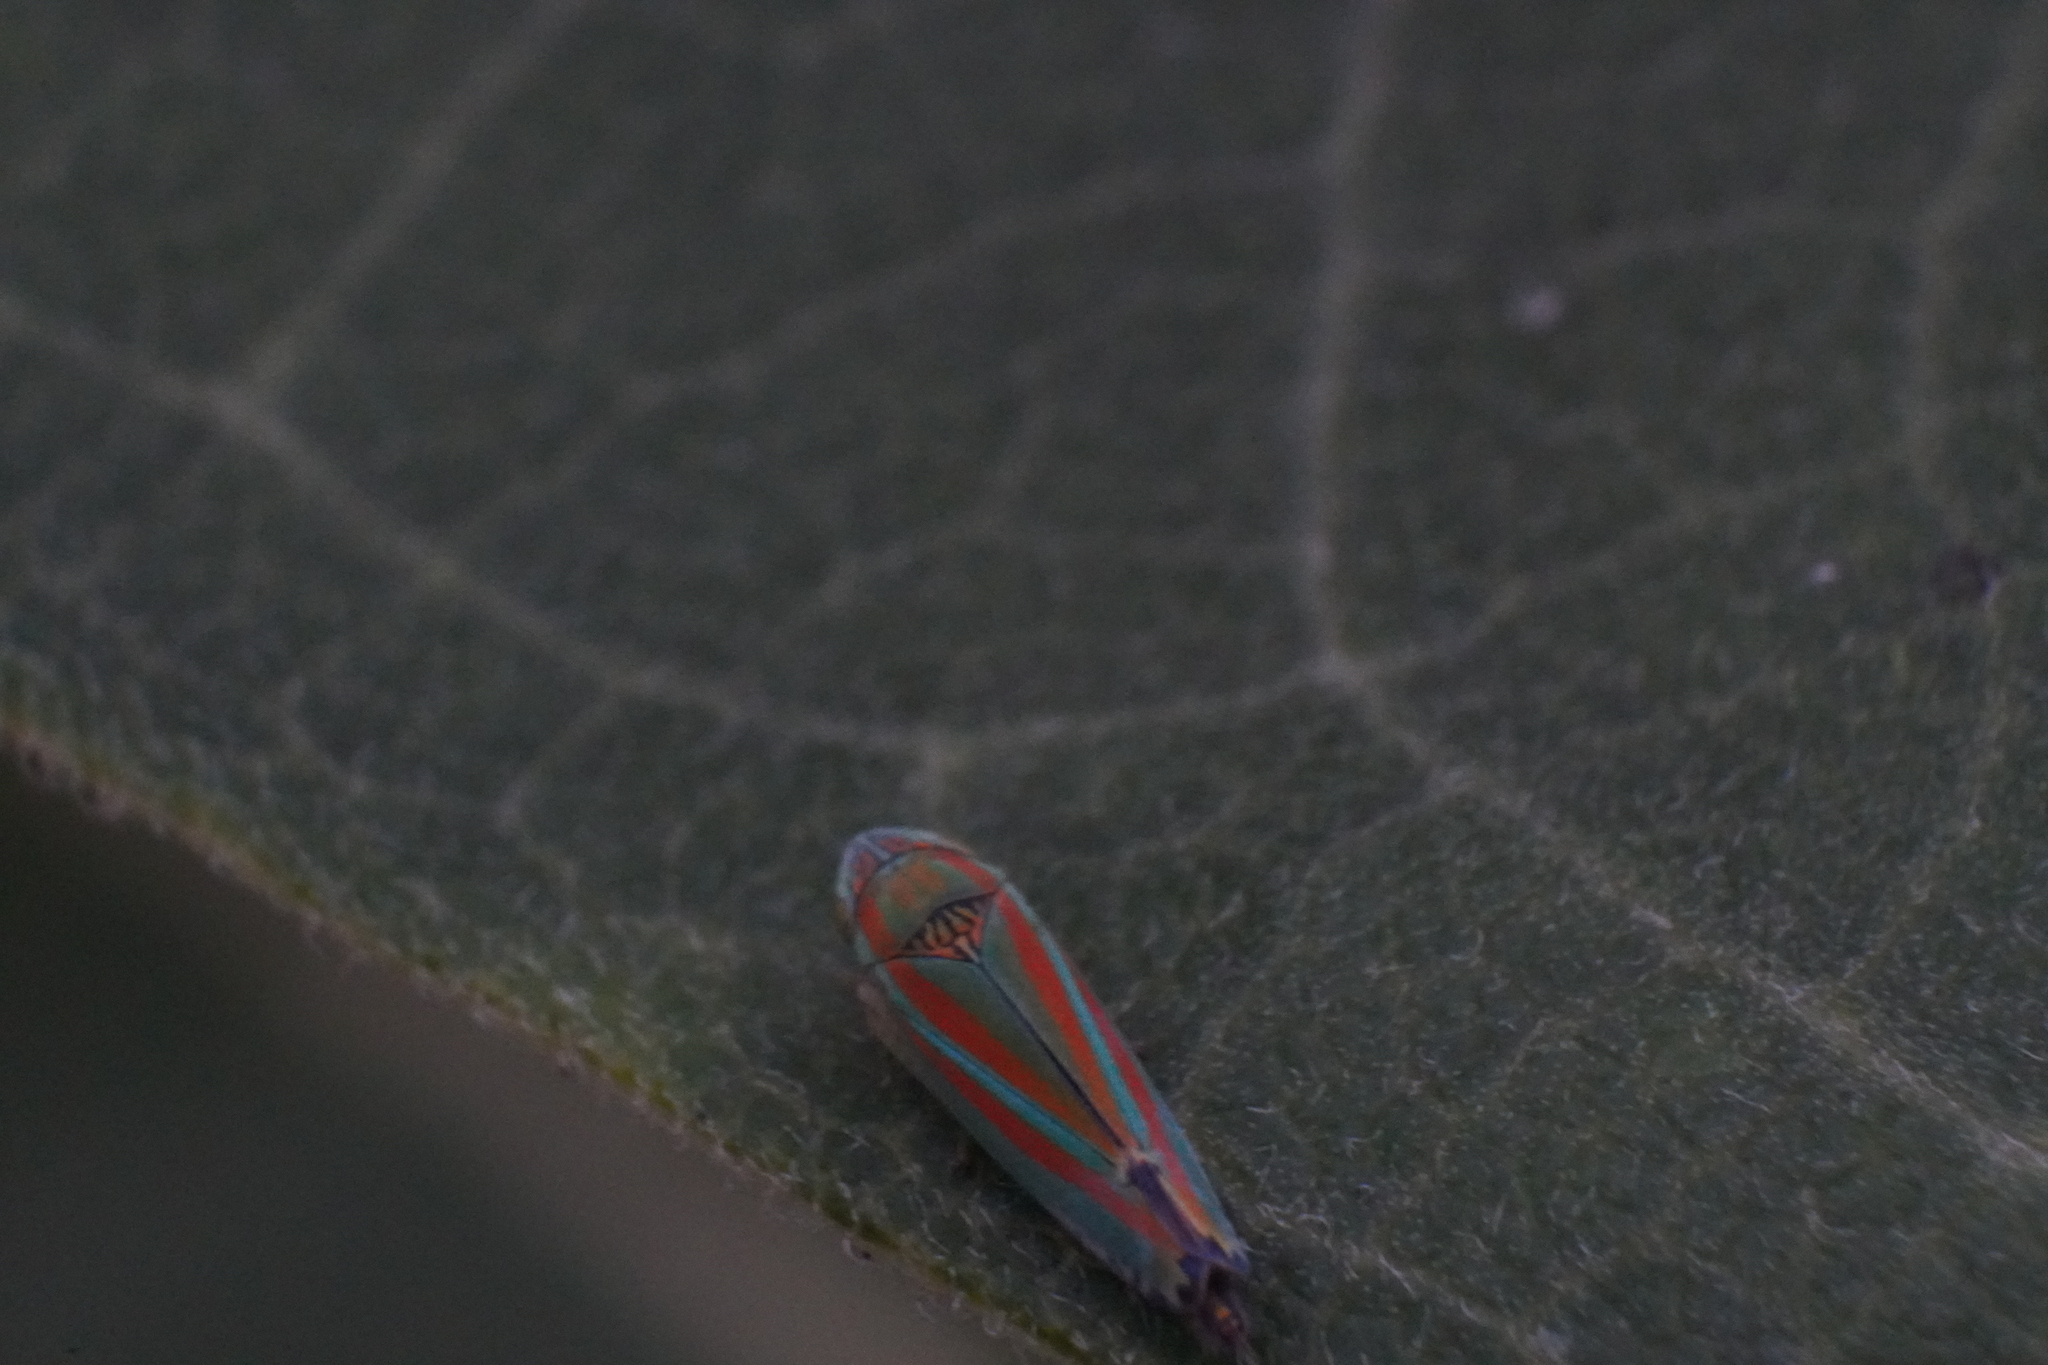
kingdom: Animalia
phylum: Arthropoda
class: Insecta
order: Hemiptera
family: Cicadellidae
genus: Graphocephala
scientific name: Graphocephala versuta
